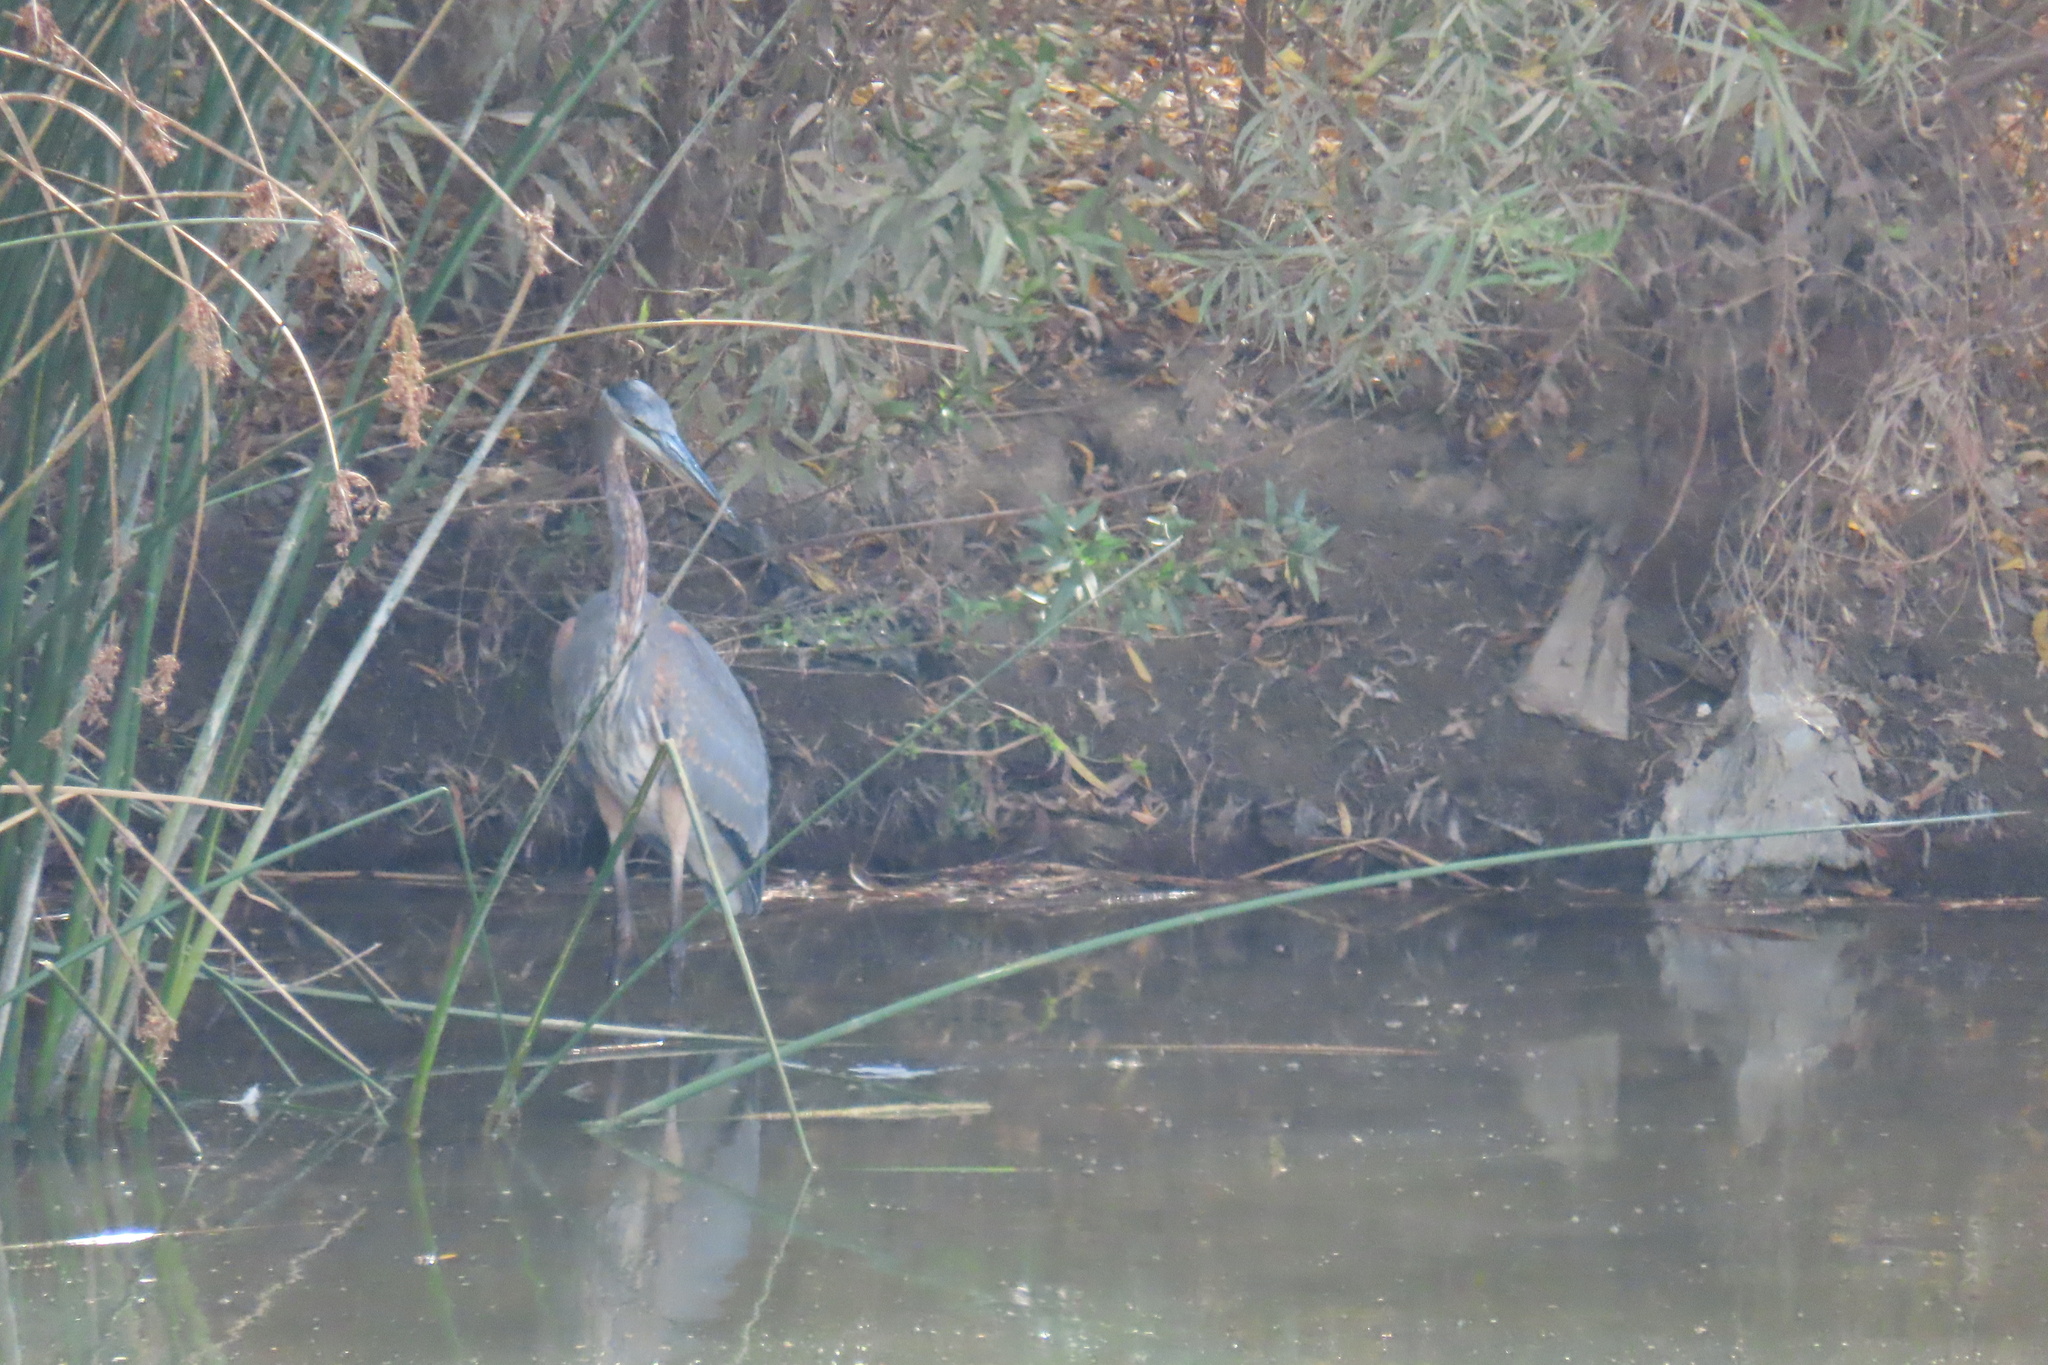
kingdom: Animalia
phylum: Chordata
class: Aves
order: Pelecaniformes
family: Ardeidae
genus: Ardea
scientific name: Ardea herodias
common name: Great blue heron
